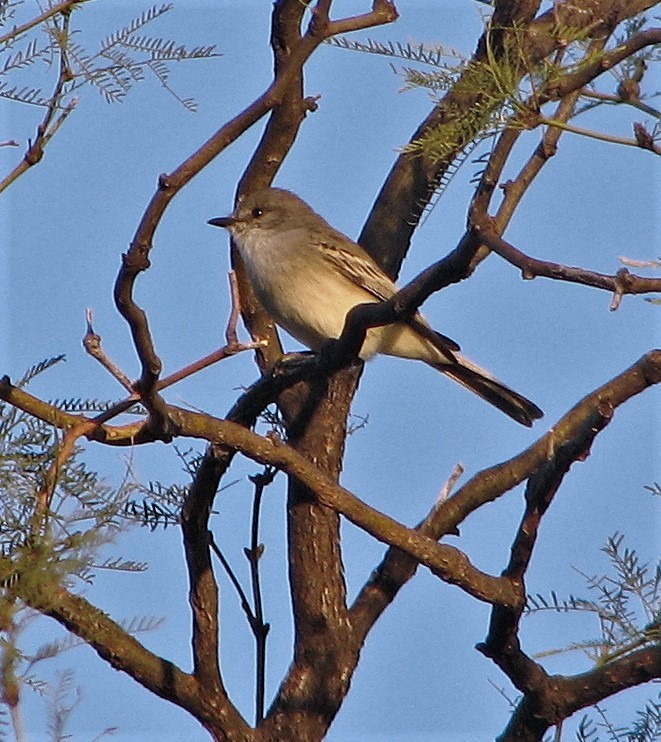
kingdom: Animalia
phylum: Chordata
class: Aves
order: Passeriformes
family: Tyrannidae
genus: Suiriri
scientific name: Suiriri suiriri
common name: Suiriri flycatcher
